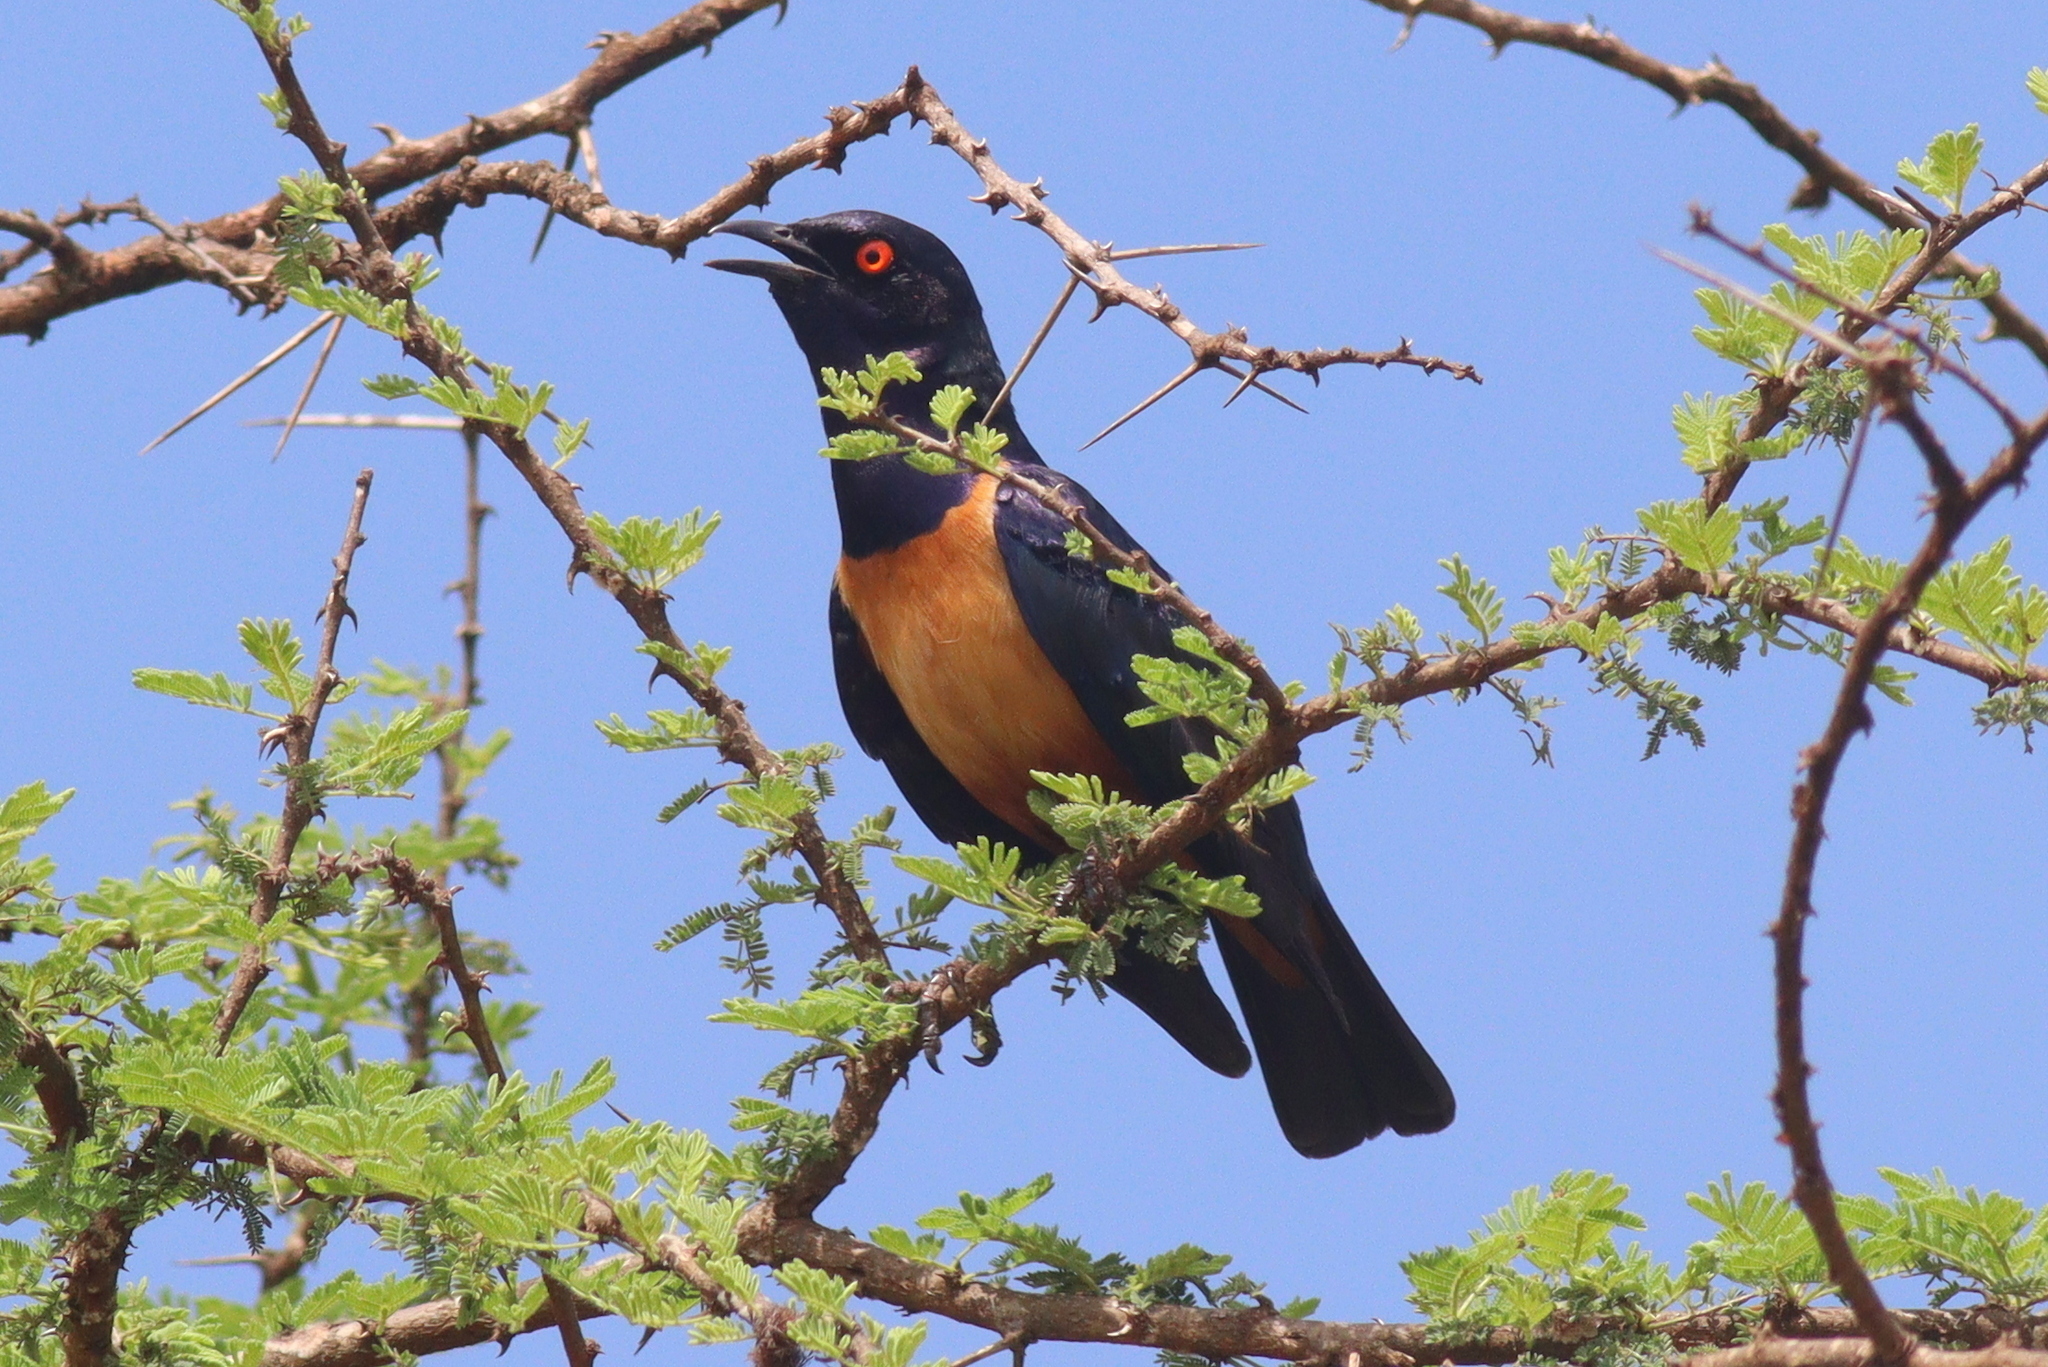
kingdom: Animalia
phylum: Chordata
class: Aves
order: Passeriformes
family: Sturnidae
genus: Lamprotornis
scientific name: Lamprotornis hildebrandti
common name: Hildebrandt's starling
